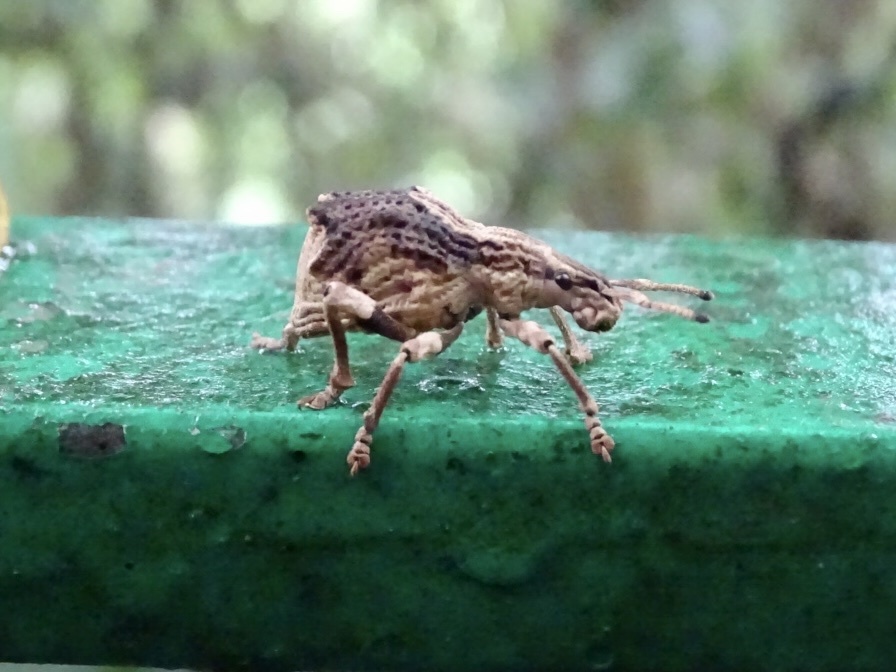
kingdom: Animalia
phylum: Arthropoda
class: Insecta
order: Coleoptera
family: Curculionidae
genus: Episomus
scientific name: Episomus
